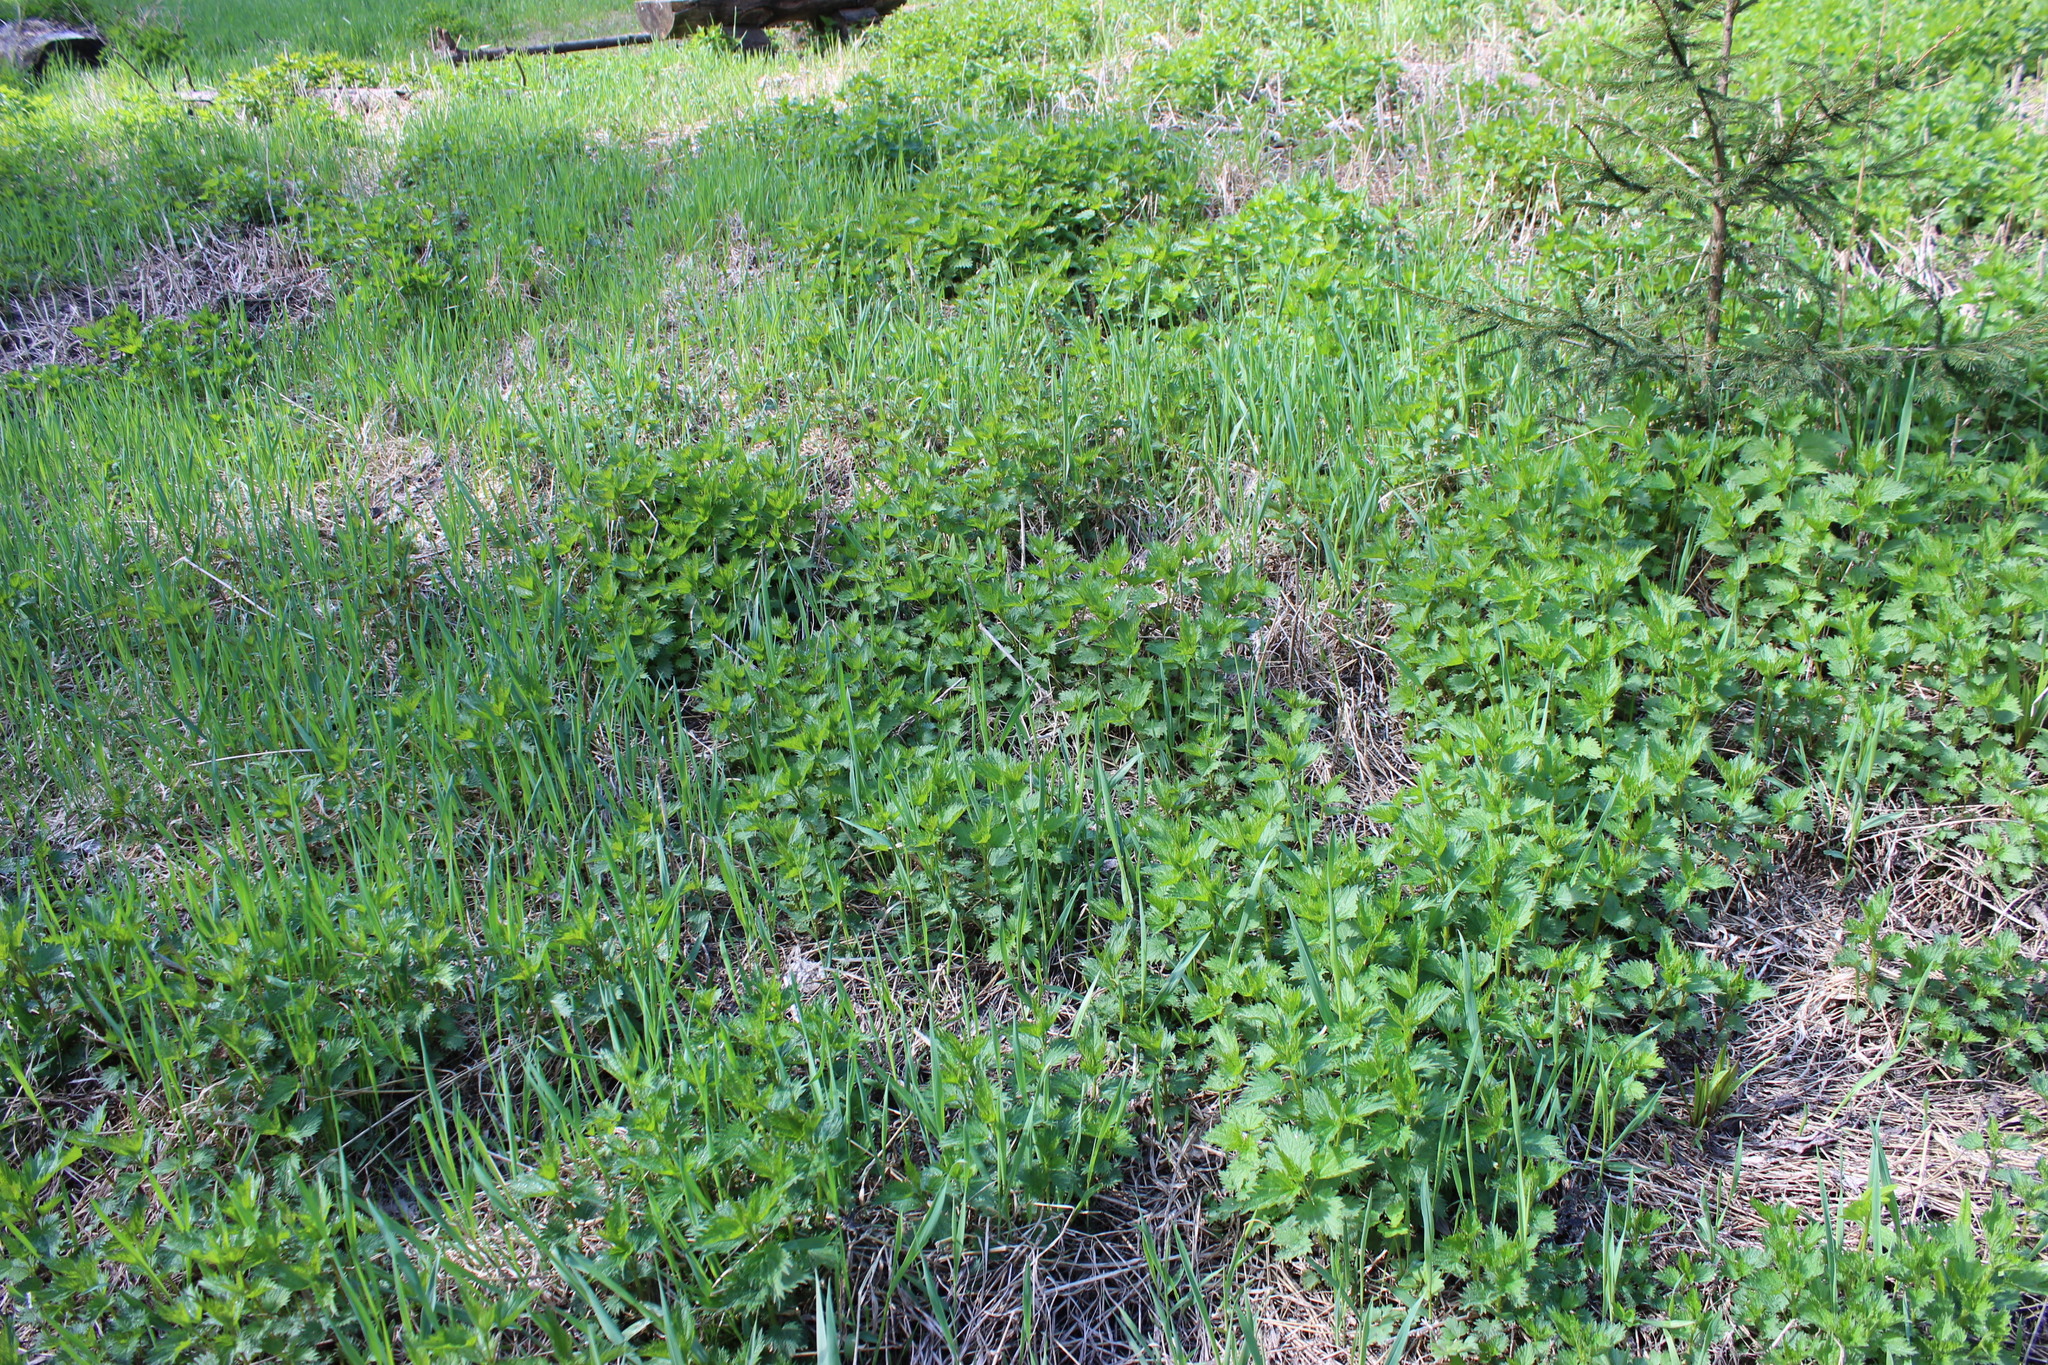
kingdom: Plantae
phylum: Tracheophyta
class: Magnoliopsida
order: Rosales
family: Urticaceae
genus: Urtica
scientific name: Urtica dioica
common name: Common nettle
